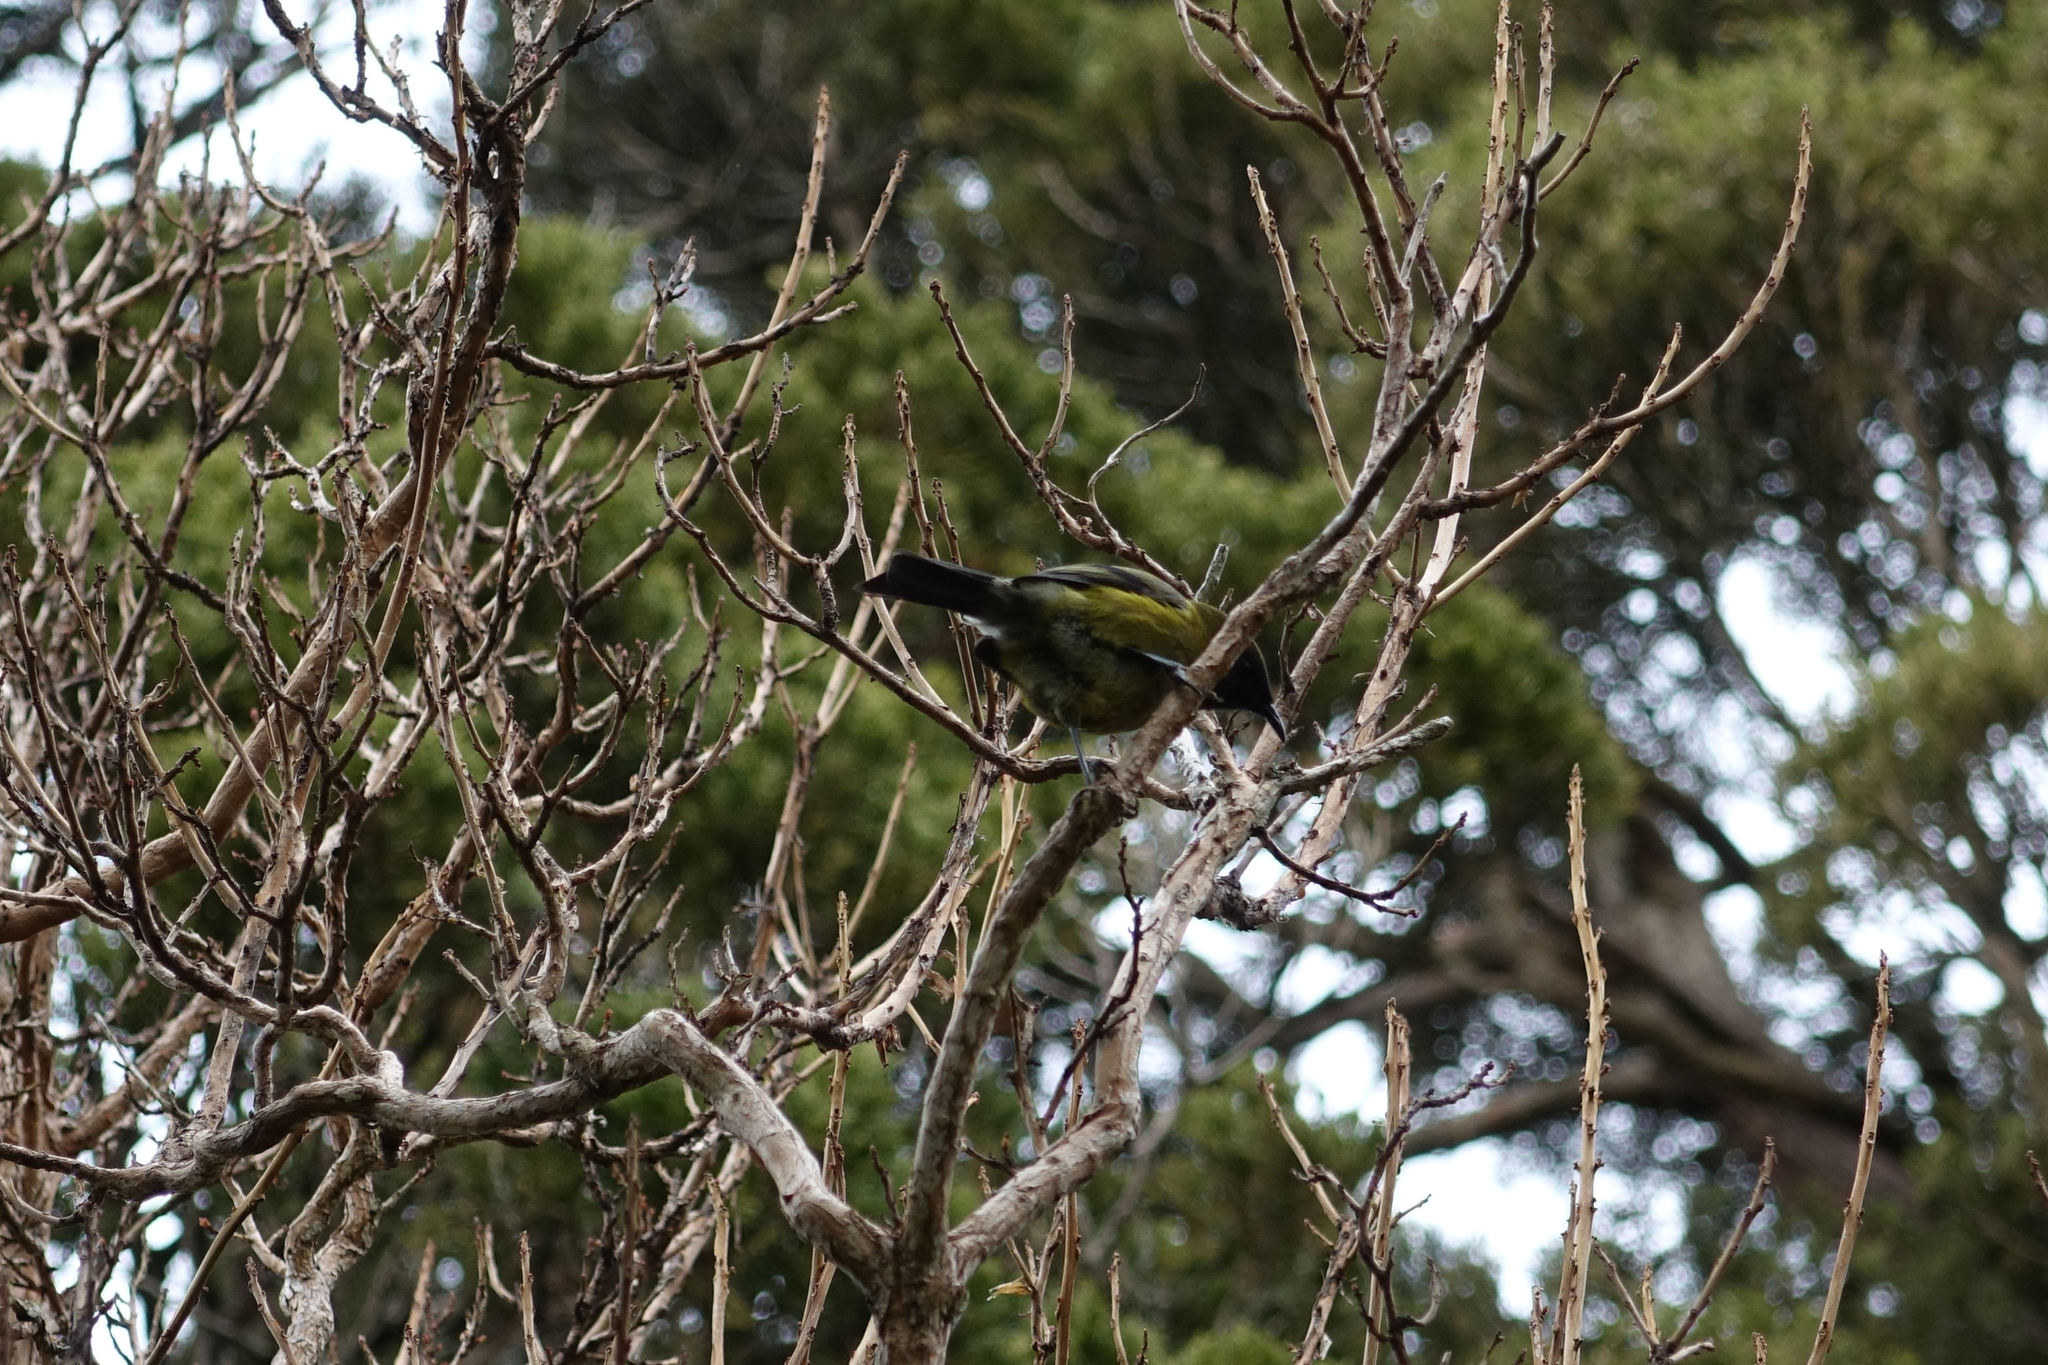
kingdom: Animalia
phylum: Chordata
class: Aves
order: Passeriformes
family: Meliphagidae
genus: Anthornis
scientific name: Anthornis melanura
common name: New zealand bellbird
